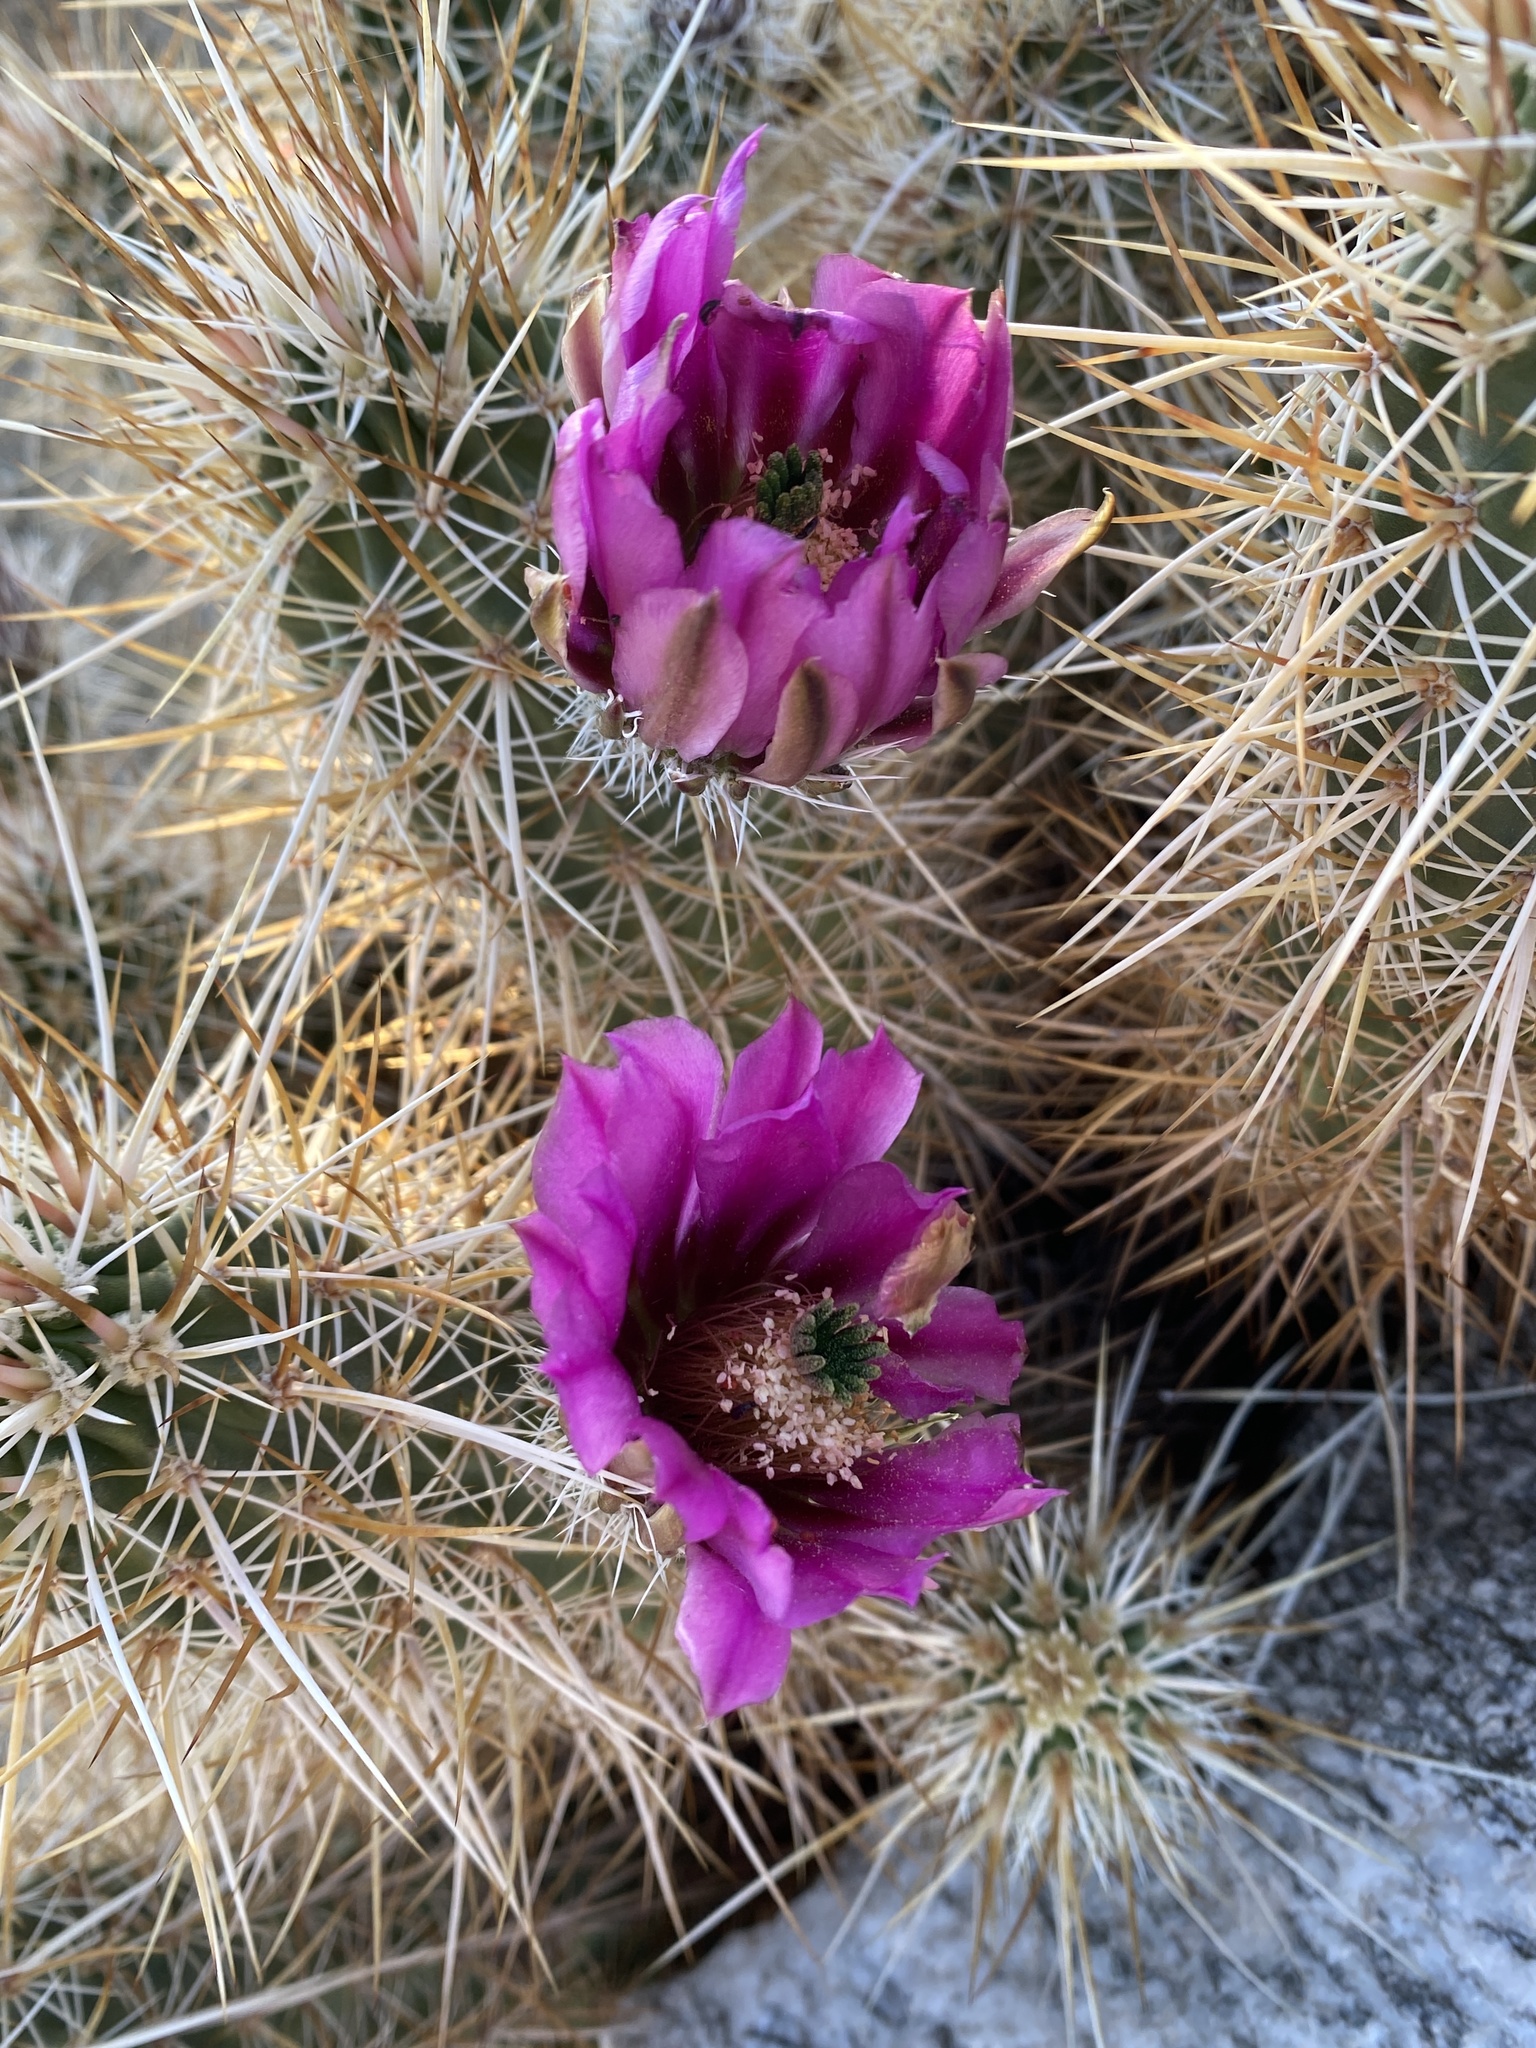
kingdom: Plantae
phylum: Tracheophyta
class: Magnoliopsida
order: Caryophyllales
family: Cactaceae
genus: Echinocereus
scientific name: Echinocereus engelmannii
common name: Engelmann's hedgehog cactus
